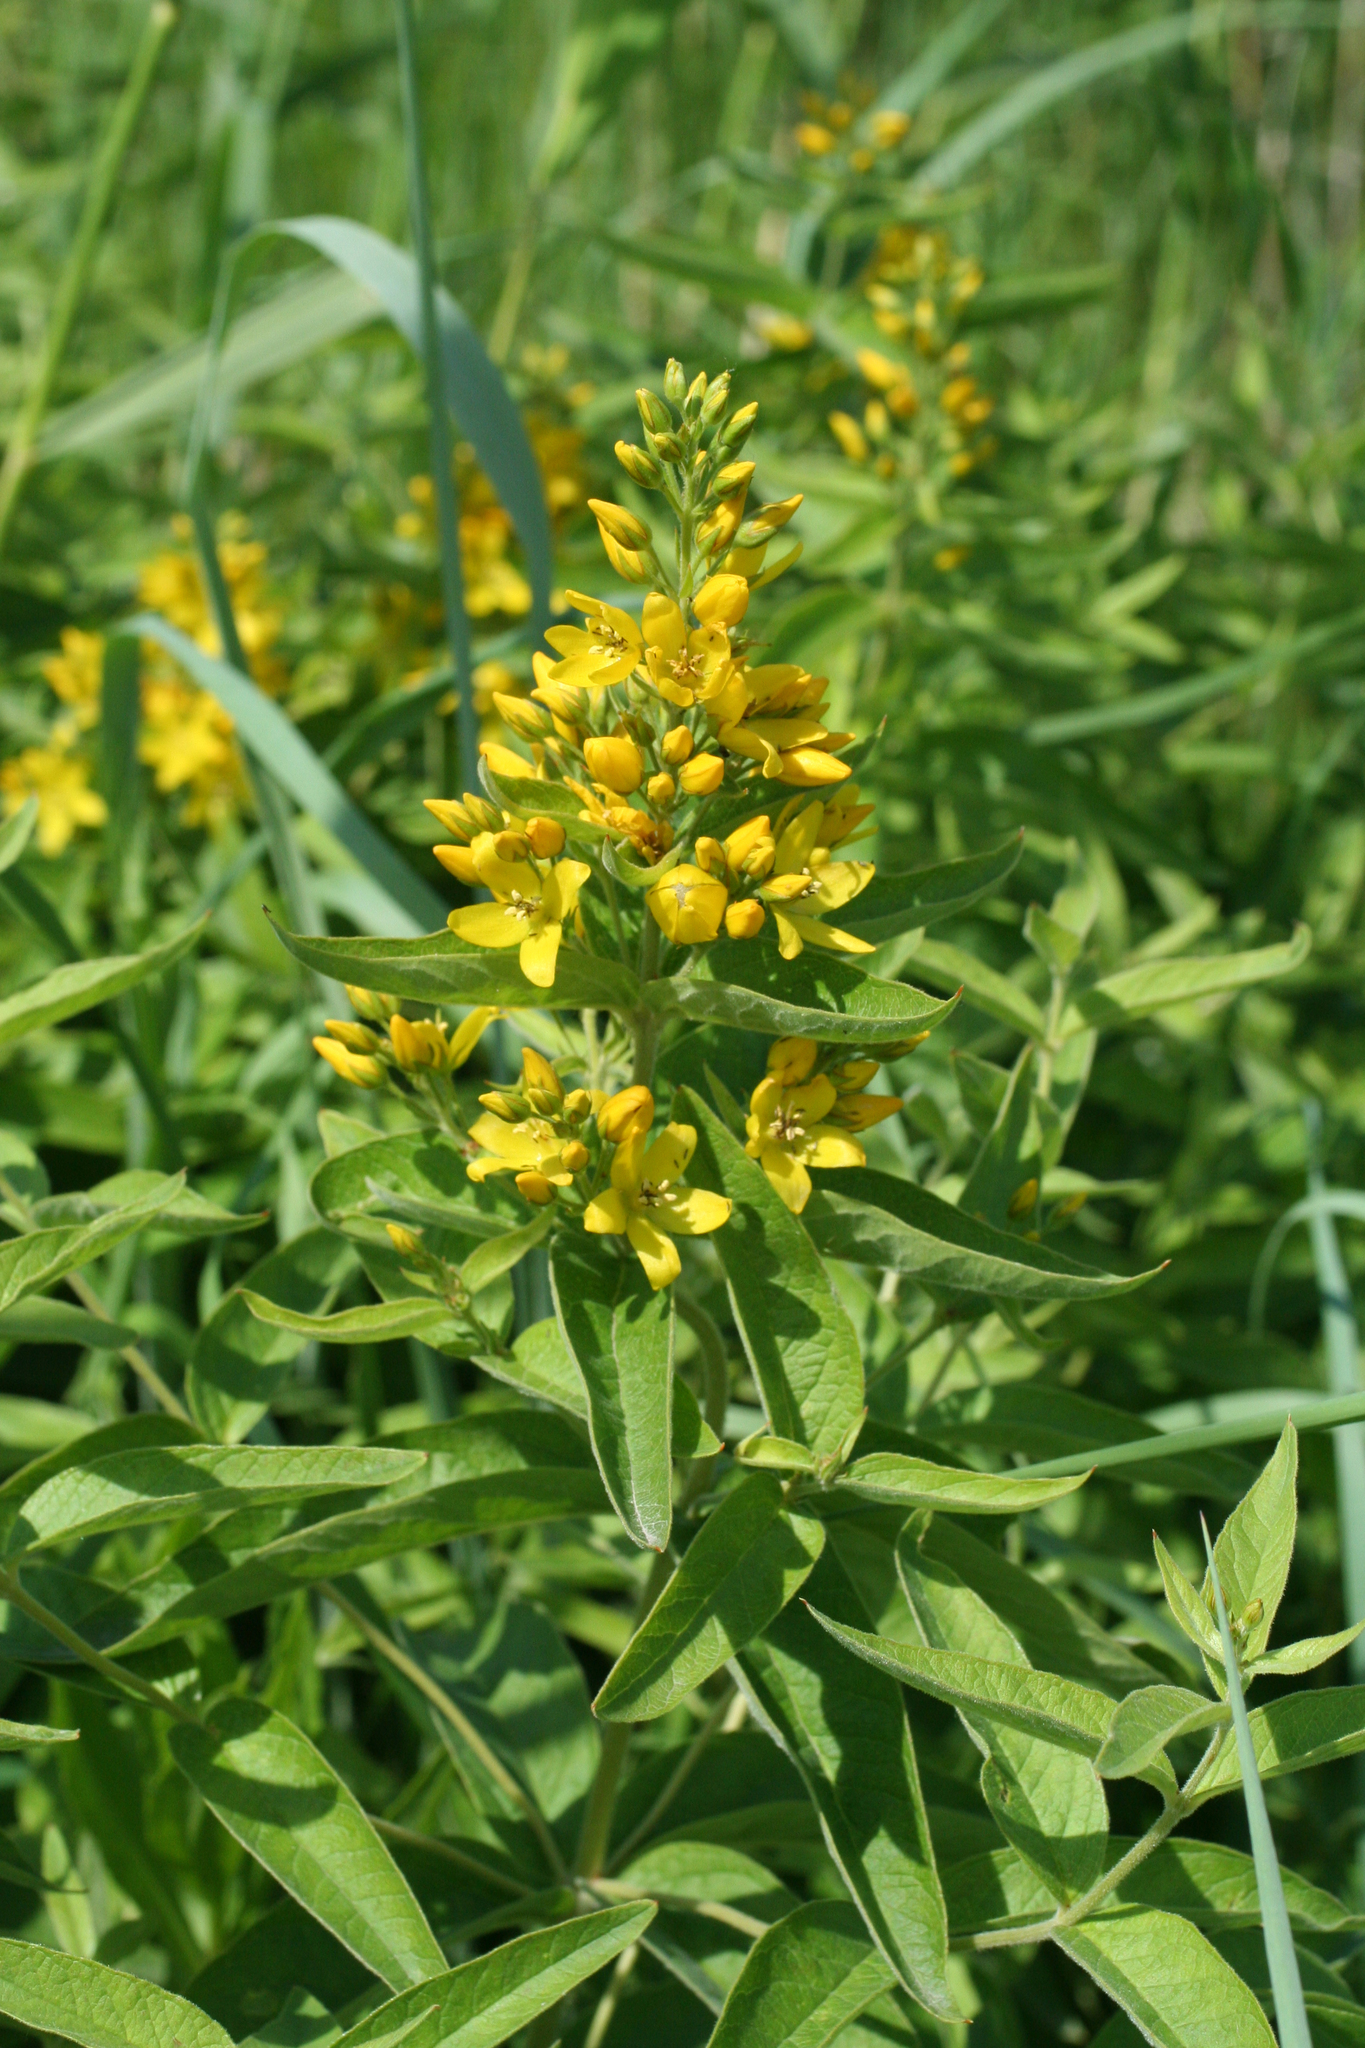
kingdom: Plantae
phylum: Tracheophyta
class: Magnoliopsida
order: Ericales
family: Primulaceae
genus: Lysimachia
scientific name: Lysimachia vulgaris
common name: Yellow loosestrife
